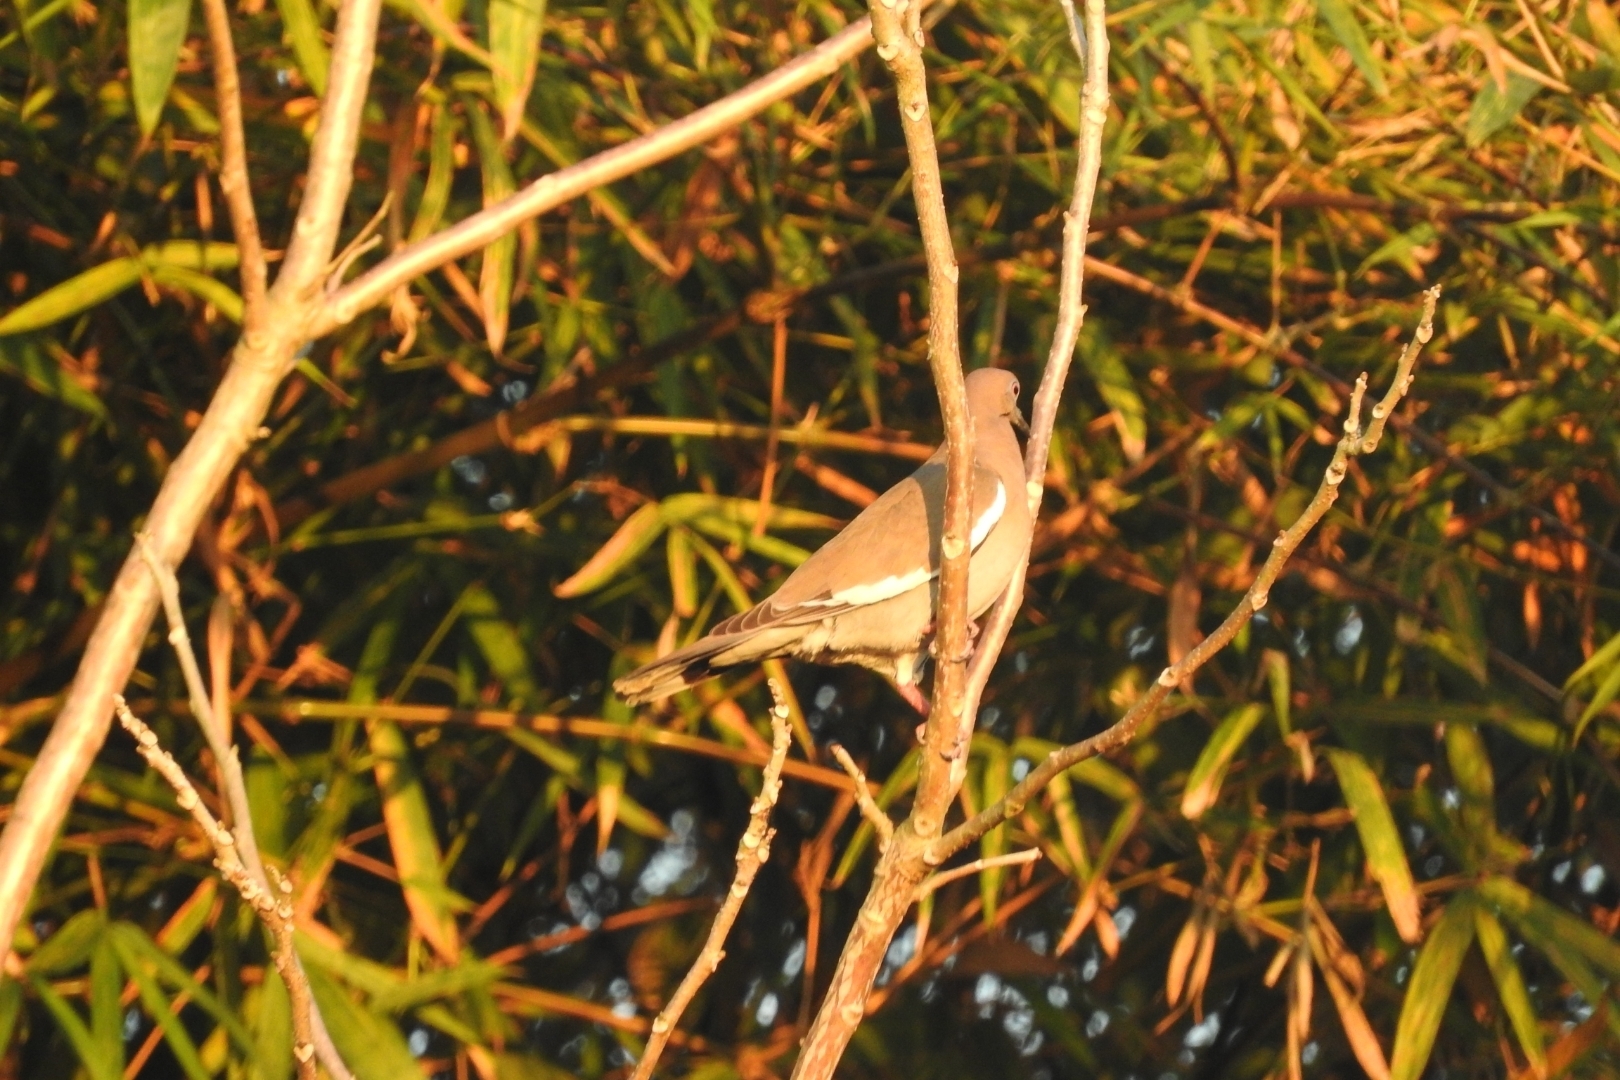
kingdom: Animalia
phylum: Chordata
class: Aves
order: Columbiformes
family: Columbidae
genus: Zenaida
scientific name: Zenaida asiatica
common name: White-winged dove
